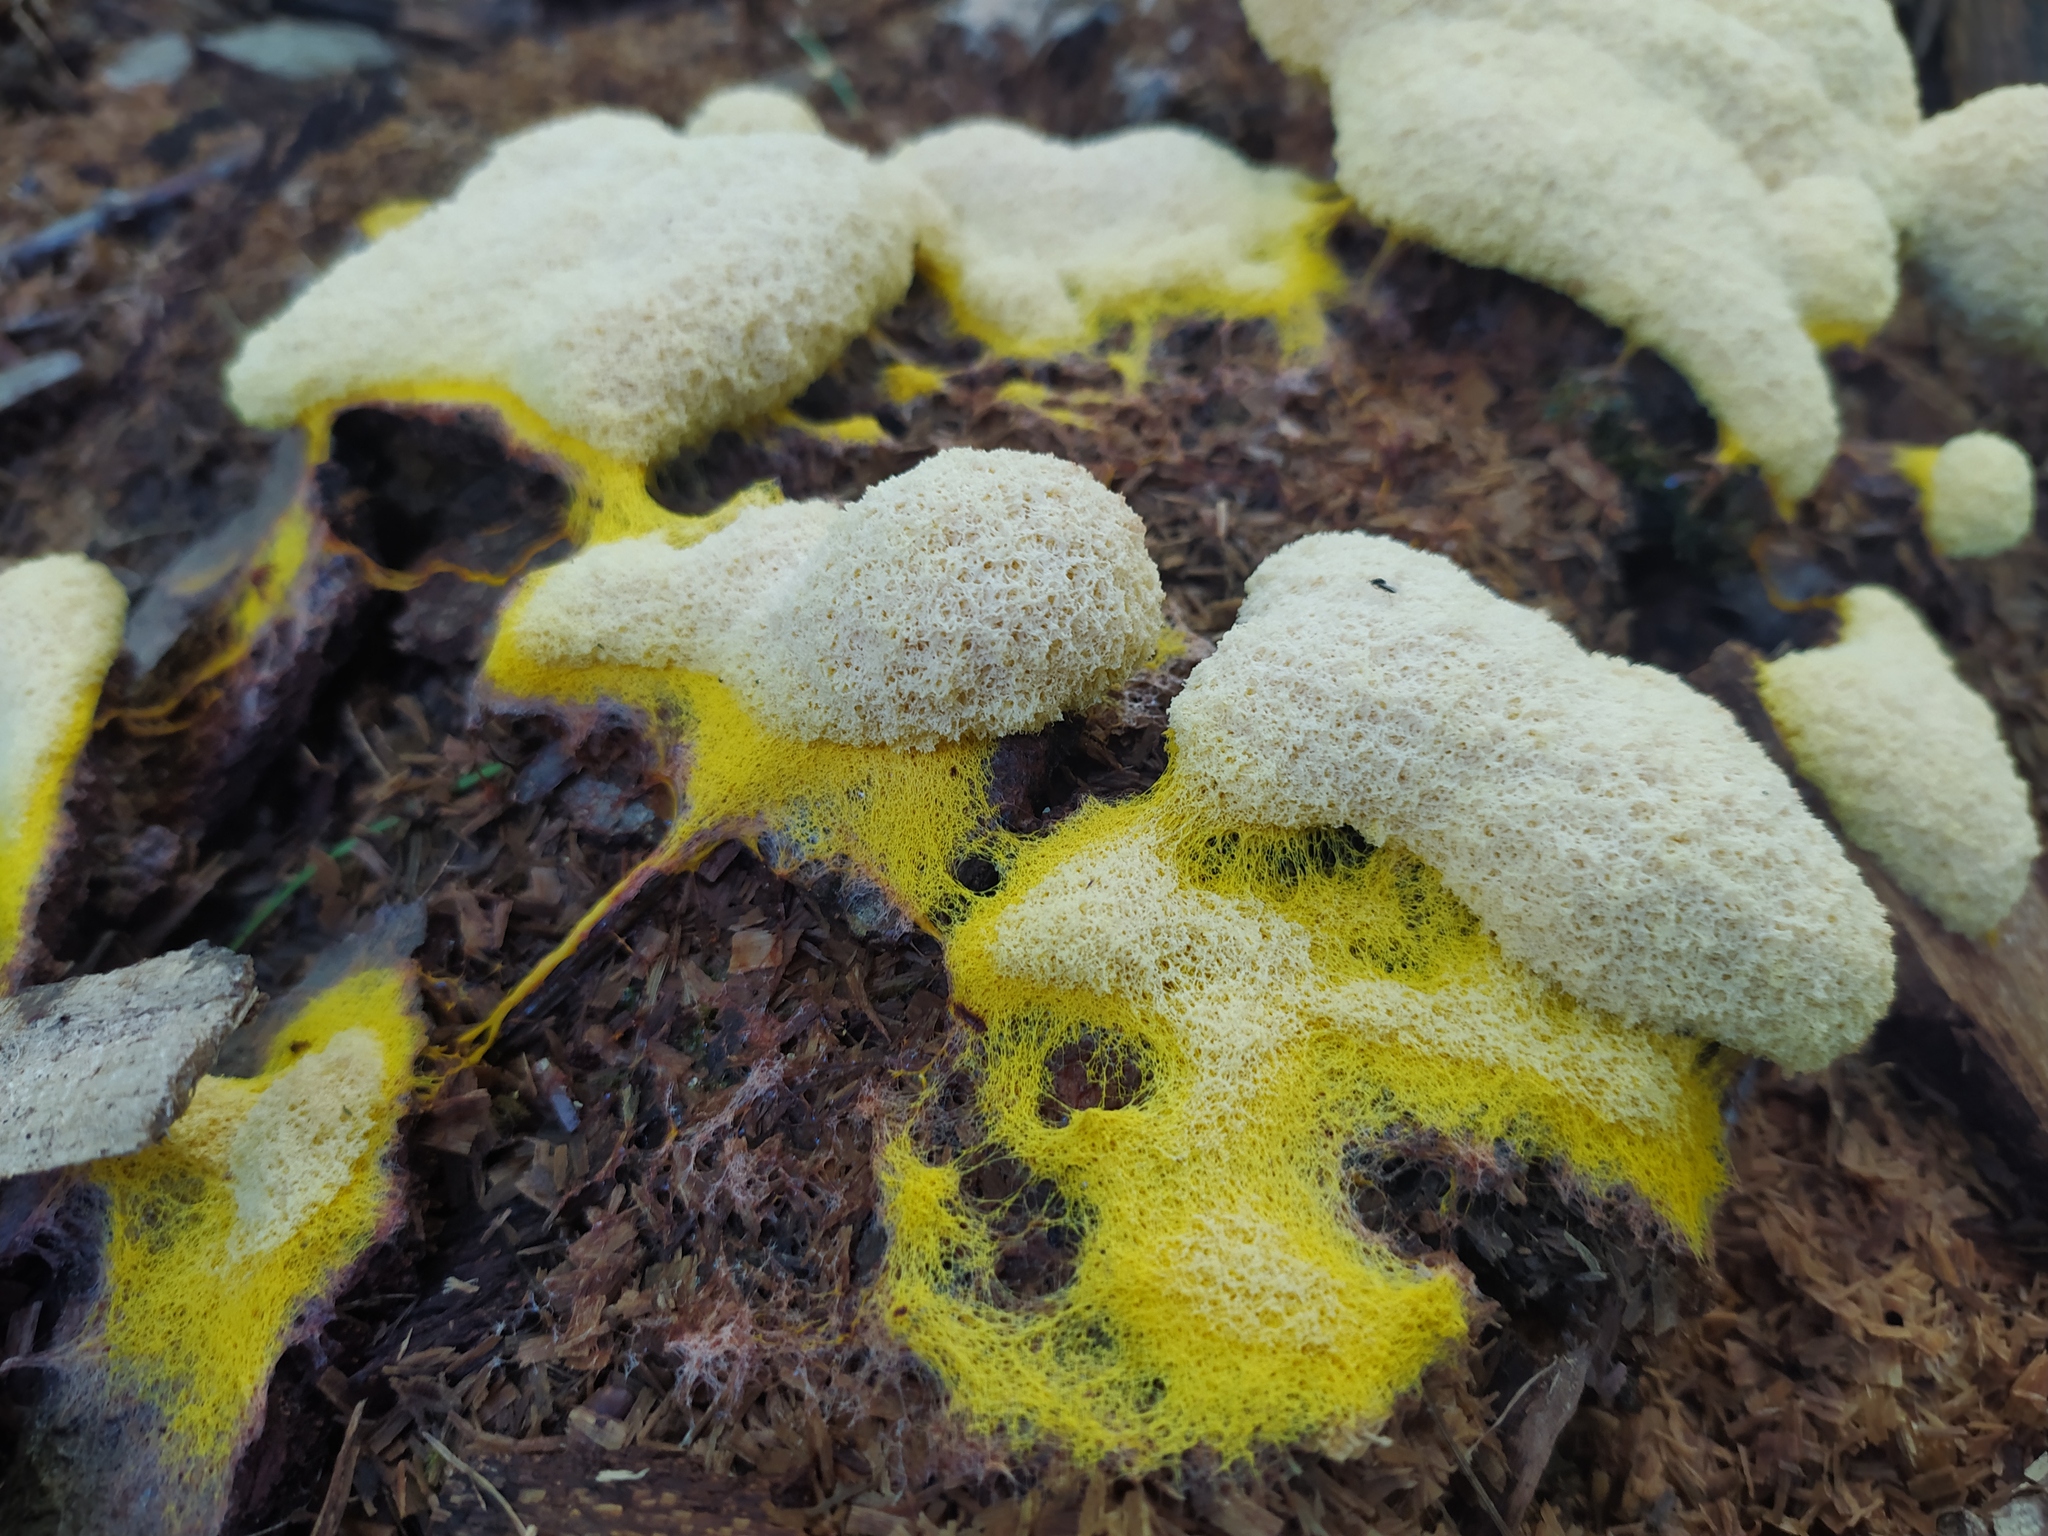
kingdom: Protozoa
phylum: Mycetozoa
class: Myxomycetes
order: Physarales
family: Physaraceae
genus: Fuligo
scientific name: Fuligo septica
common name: Dog vomit slime mold
